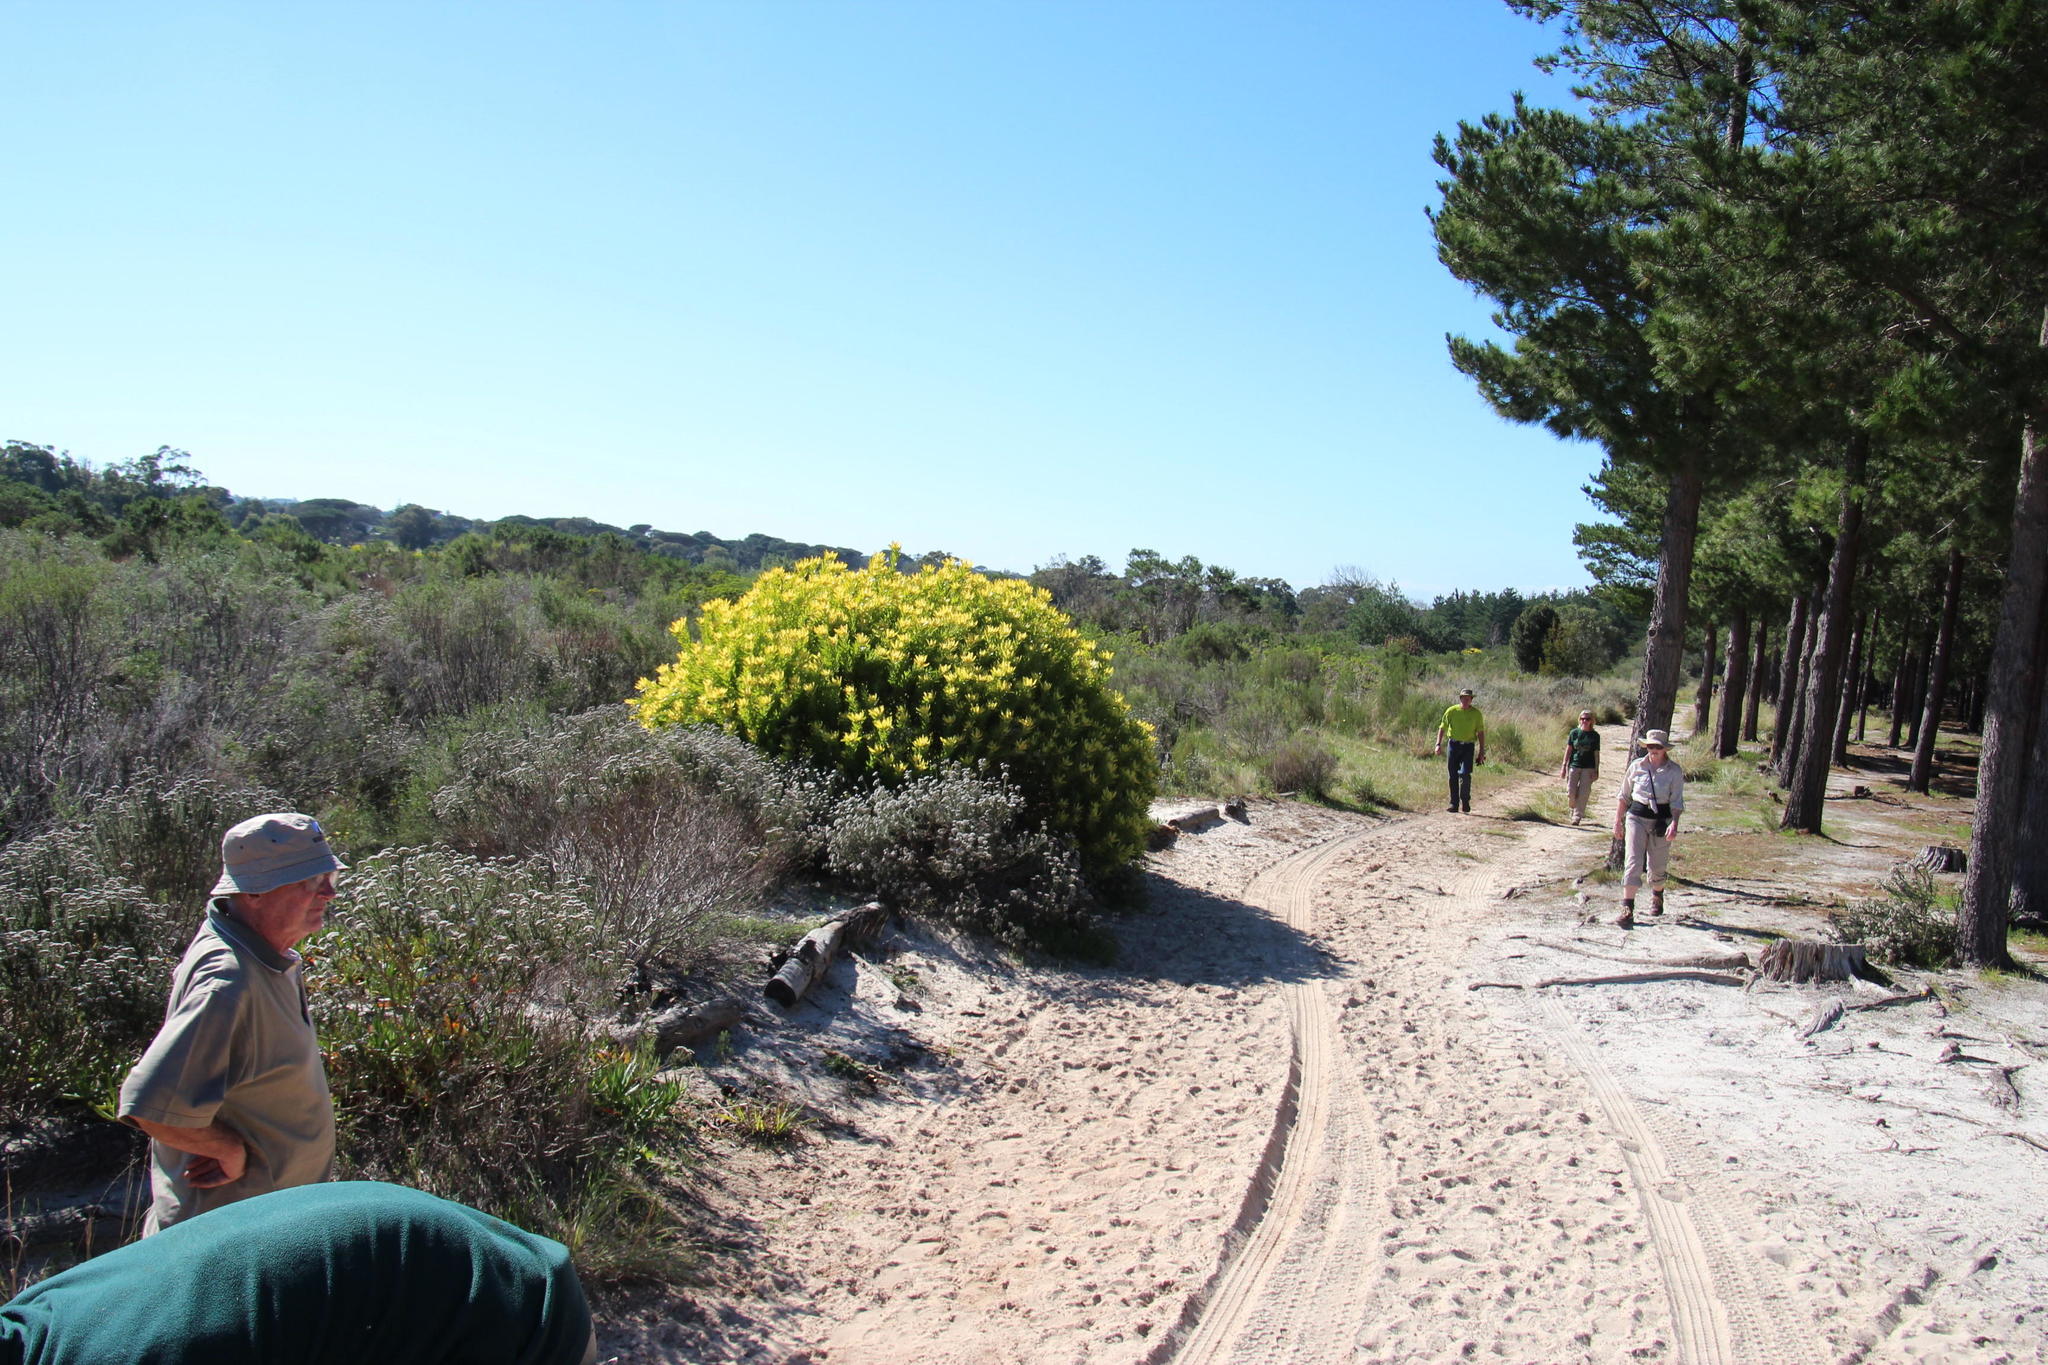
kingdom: Plantae
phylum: Tracheophyta
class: Magnoliopsida
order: Proteales
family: Proteaceae
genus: Leucadendron
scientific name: Leucadendron laureolum
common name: Golden sunshinebush
